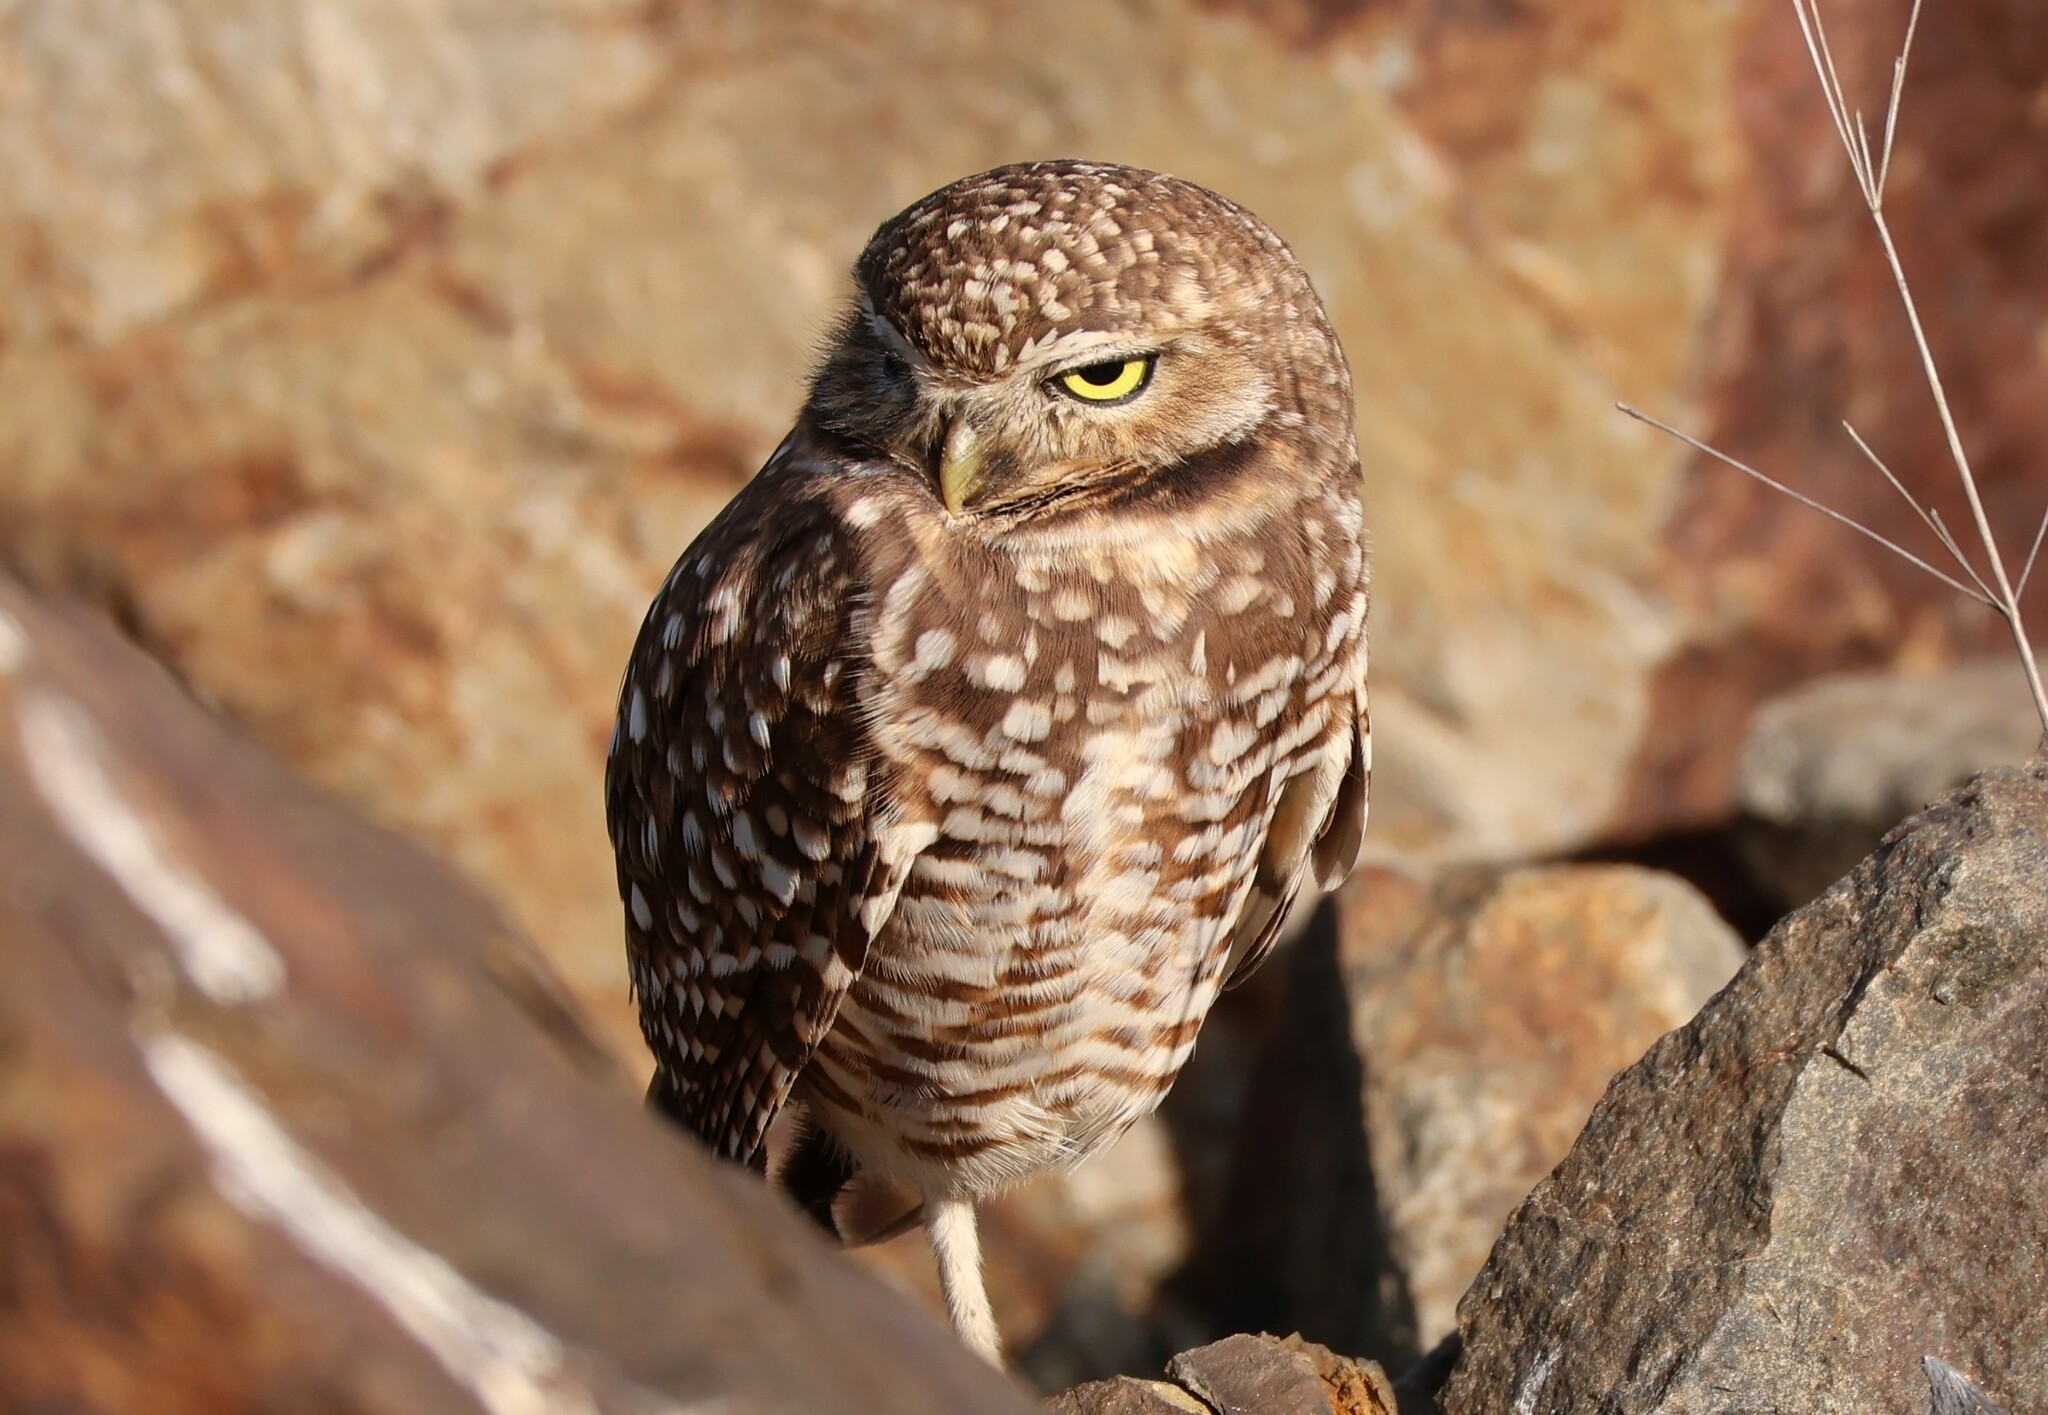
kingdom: Animalia
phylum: Chordata
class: Aves
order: Strigiformes
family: Strigidae
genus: Athene
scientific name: Athene cunicularia
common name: Burrowing owl
